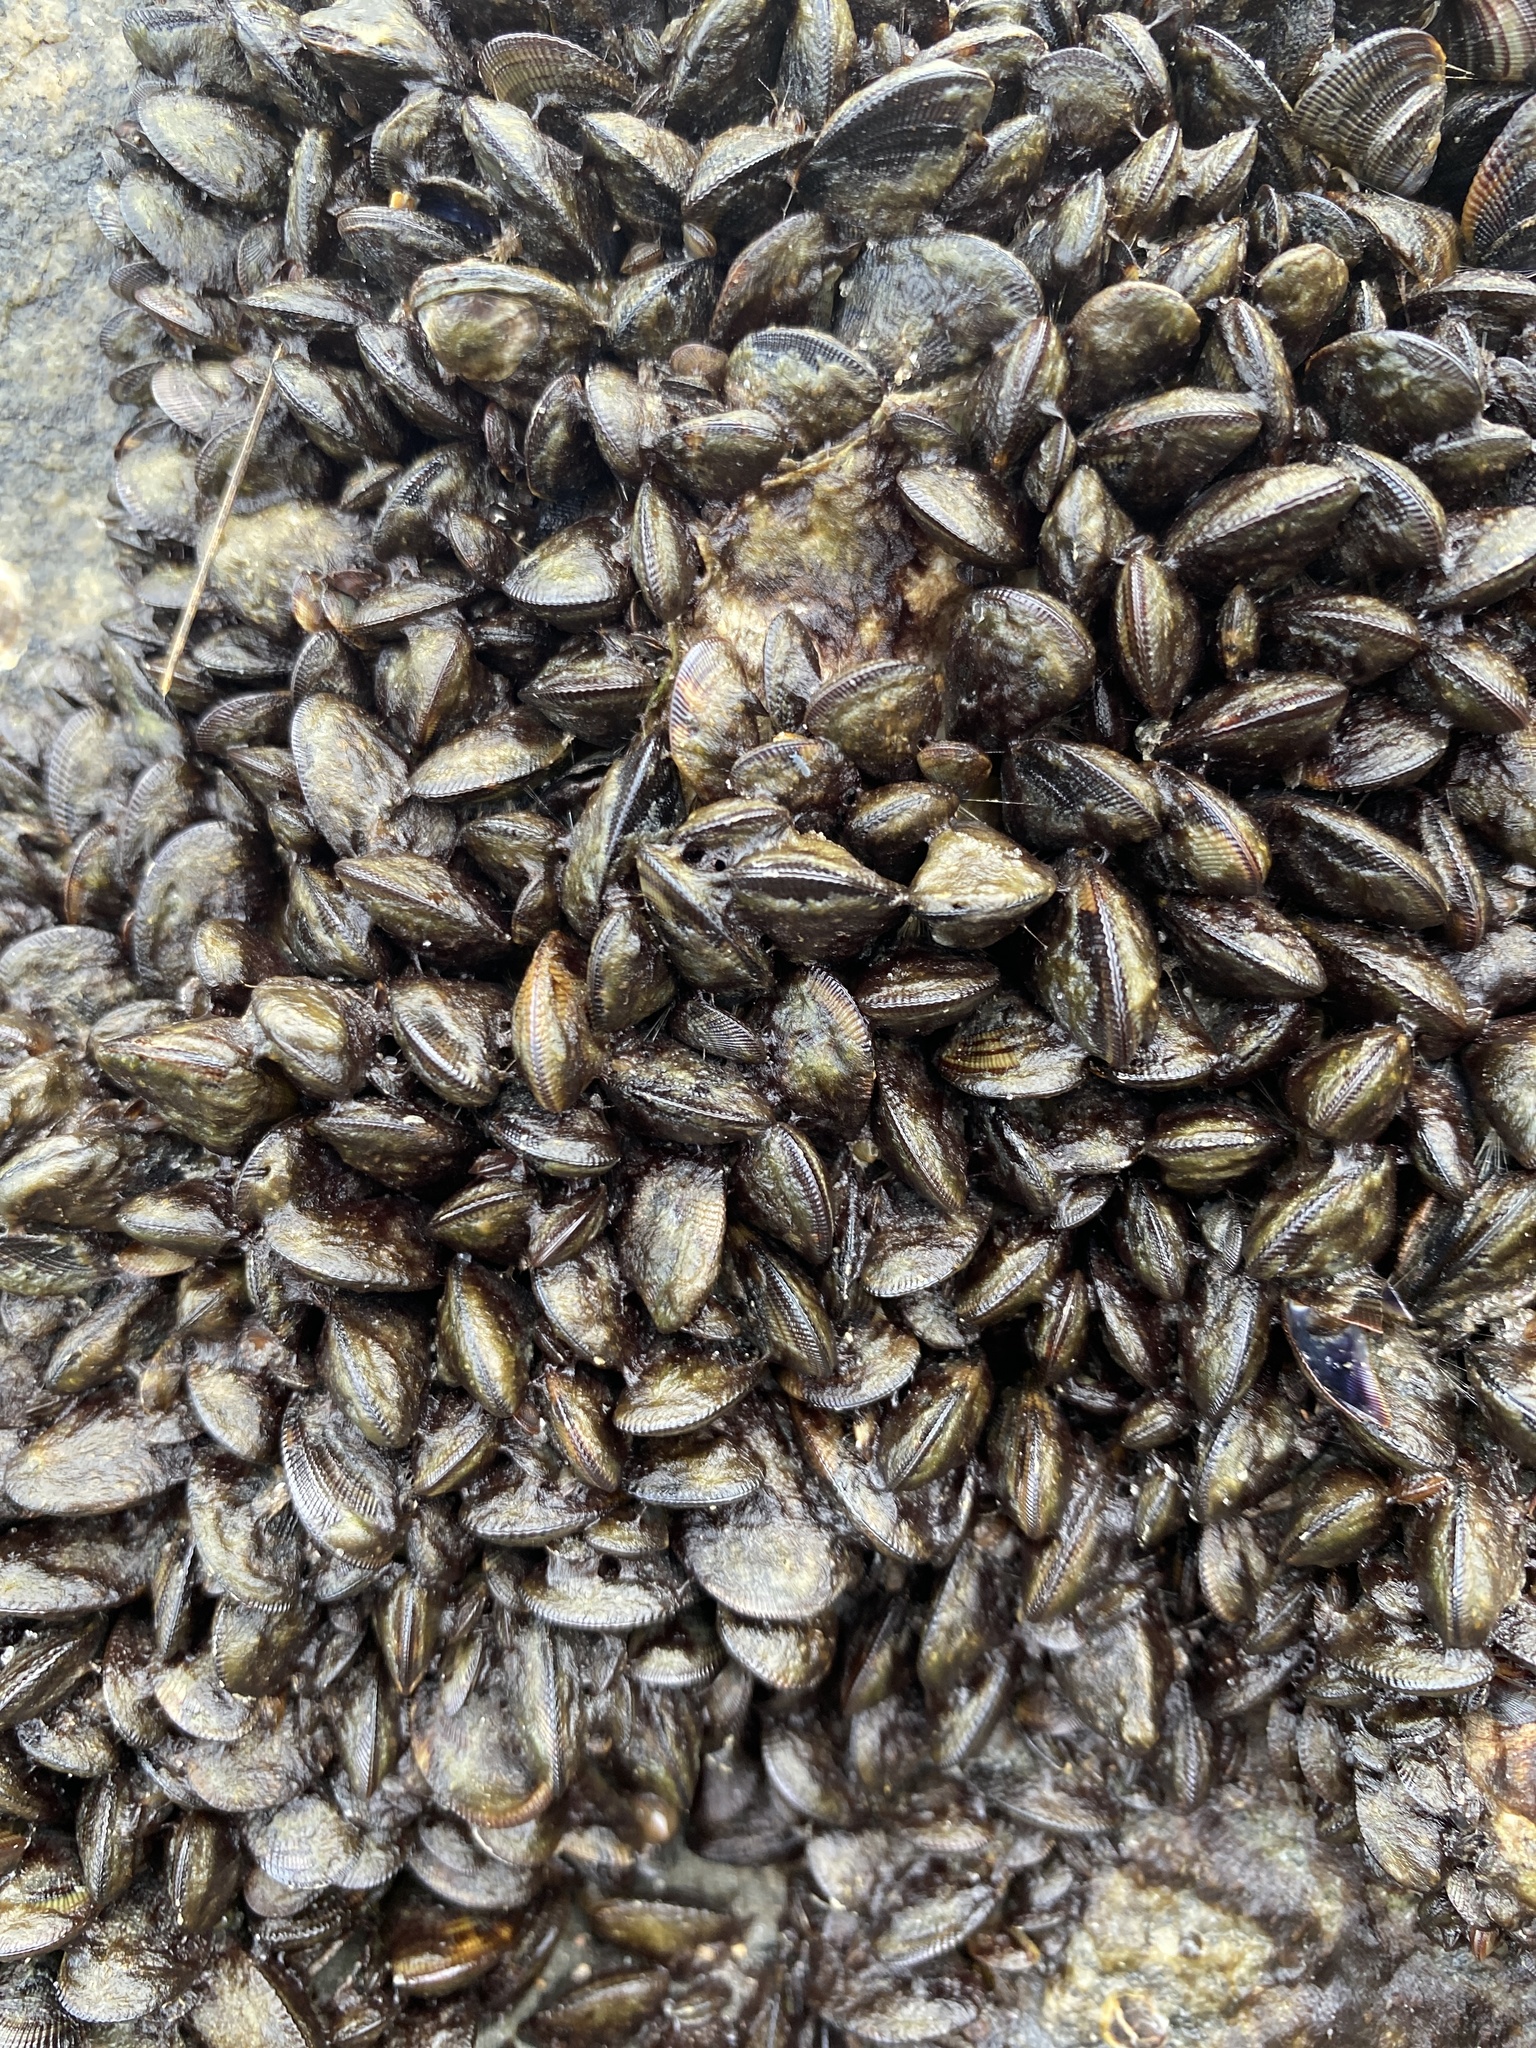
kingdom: Animalia
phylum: Mollusca
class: Bivalvia
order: Mytilida
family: Mytilidae
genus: Geukensia
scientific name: Geukensia demissa
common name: Ribbed mussel
